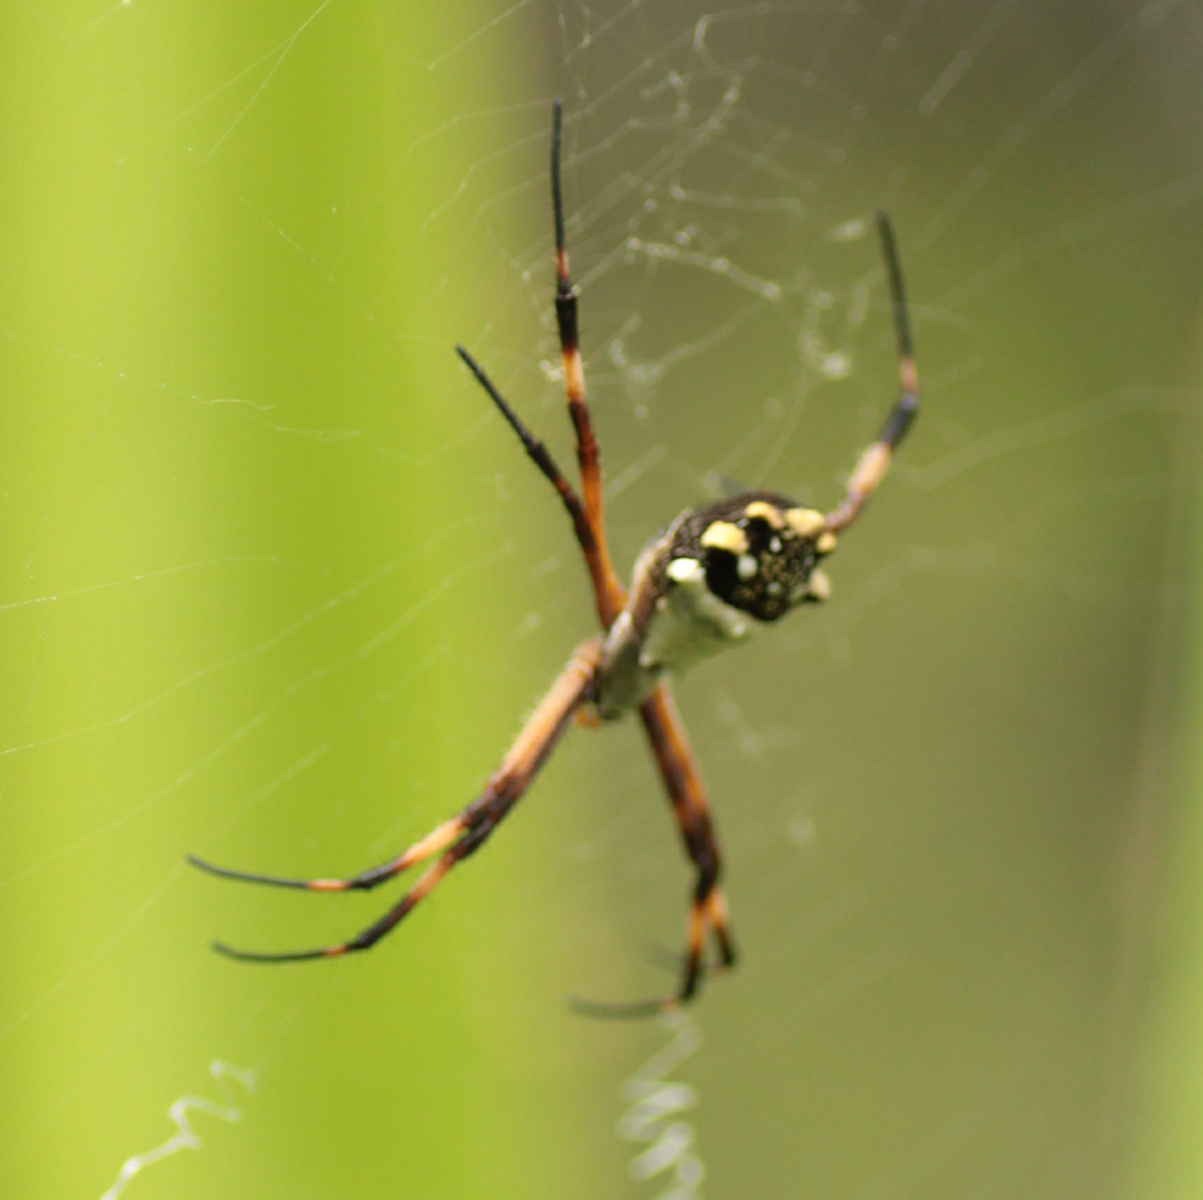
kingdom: Animalia
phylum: Arthropoda
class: Arachnida
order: Araneae
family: Araneidae
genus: Argiope
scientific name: Argiope argentata
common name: Orb weavers
